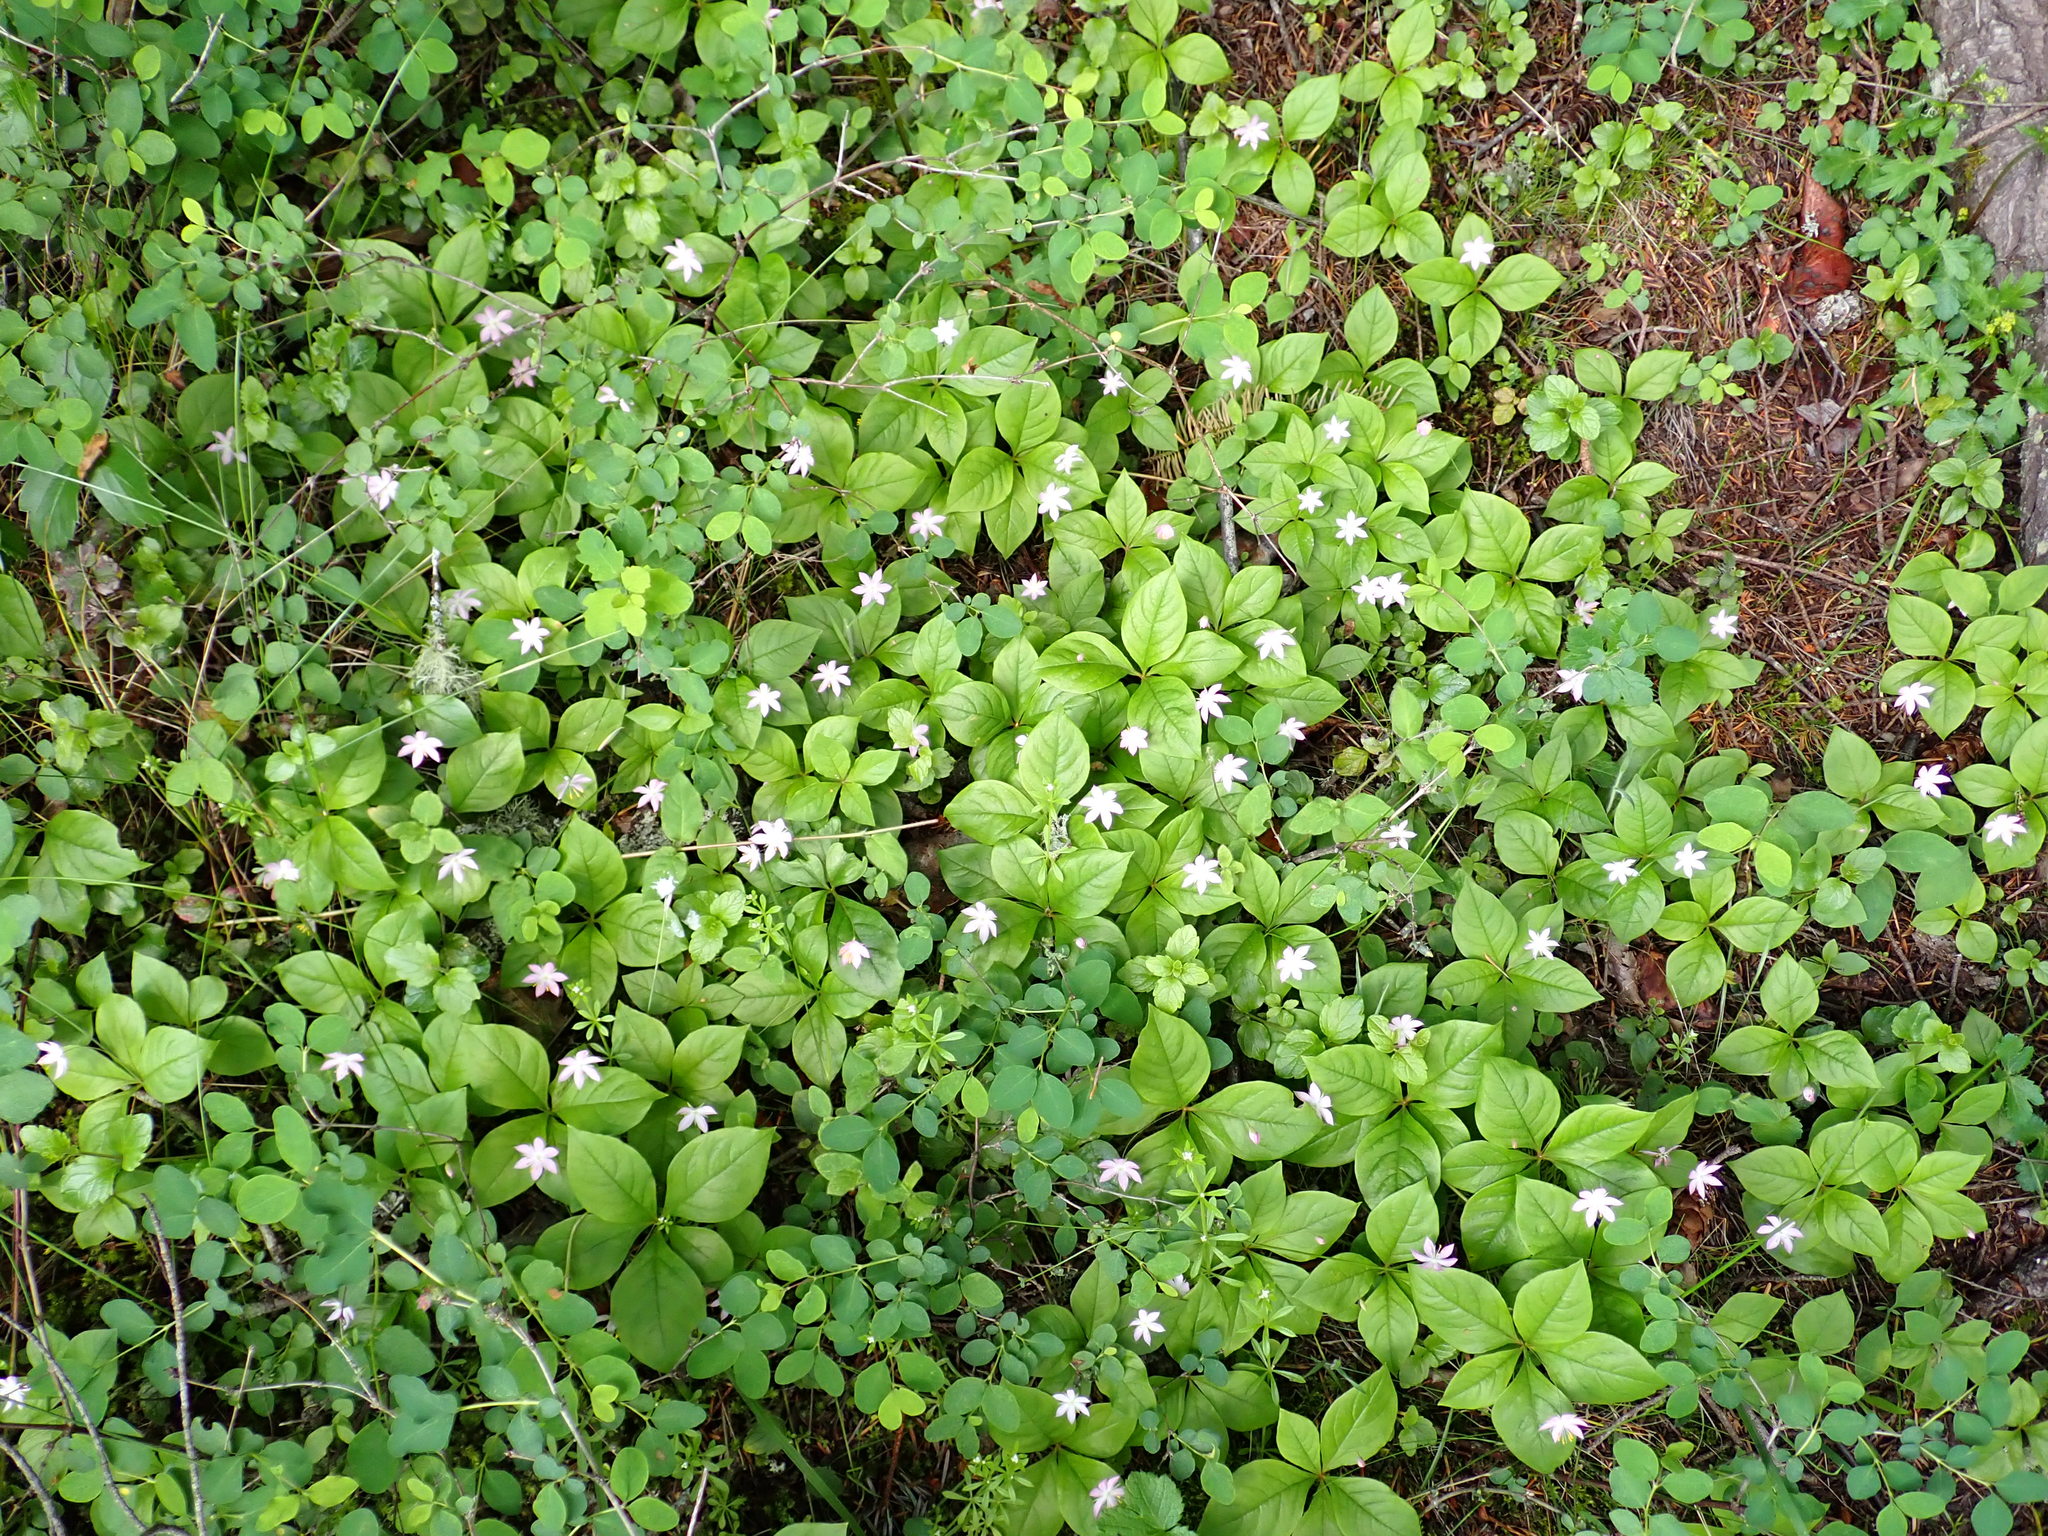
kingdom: Plantae
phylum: Tracheophyta
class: Magnoliopsida
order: Ericales
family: Primulaceae
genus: Lysimachia
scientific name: Lysimachia latifolia
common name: Pacific starflower
